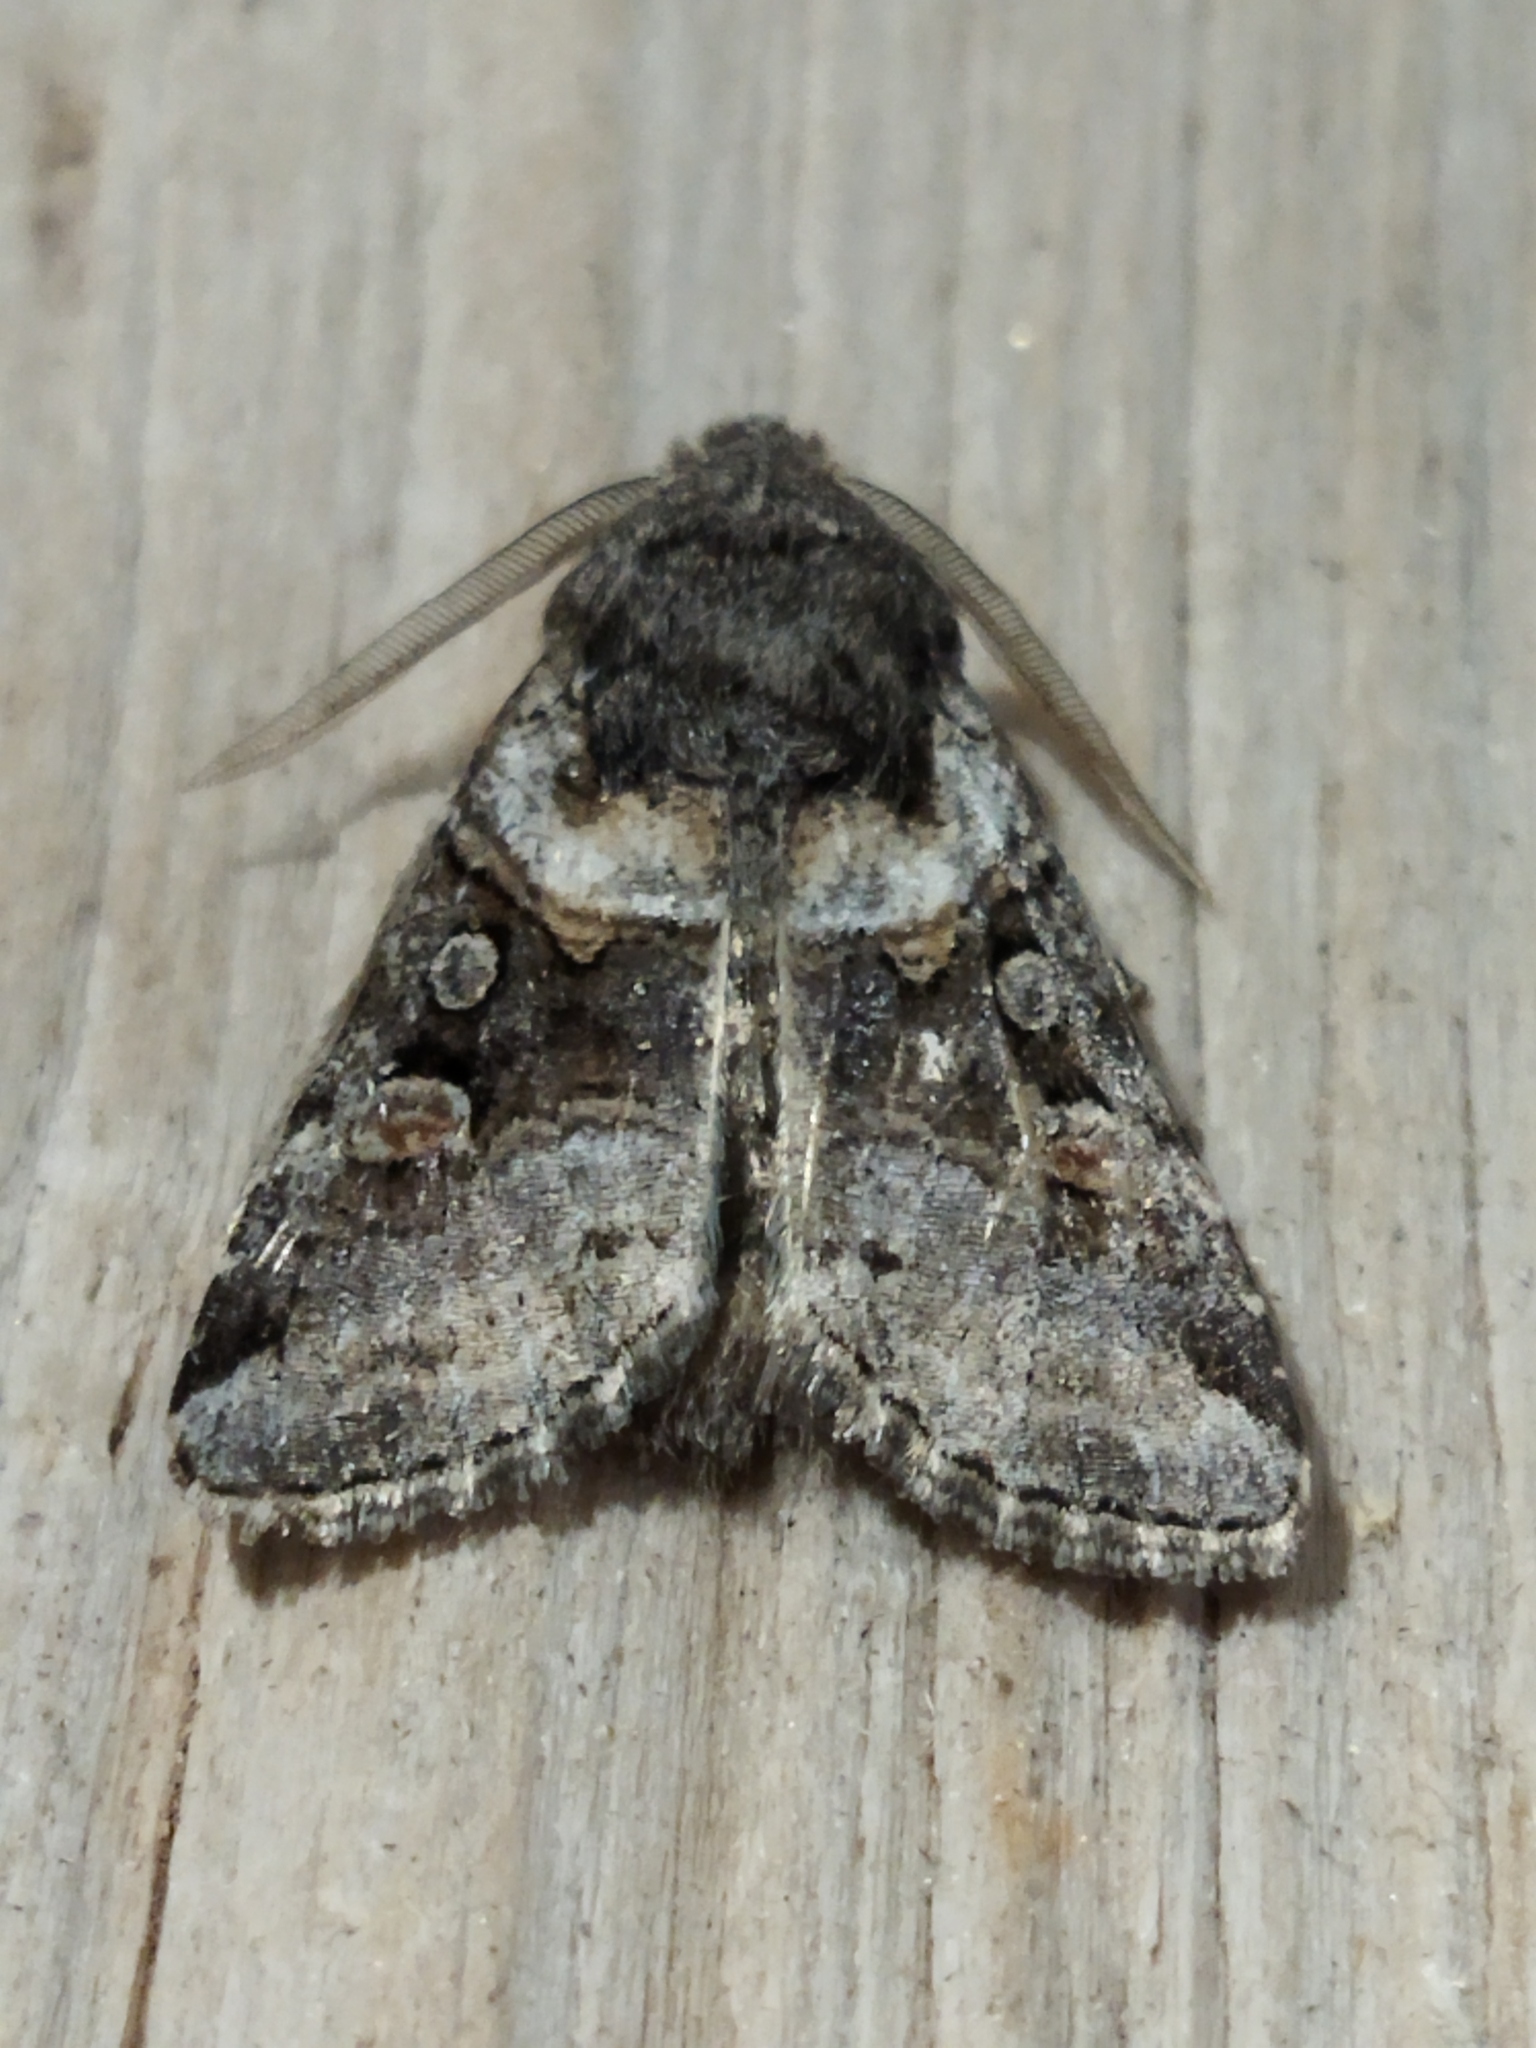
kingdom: Animalia
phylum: Arthropoda
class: Insecta
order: Lepidoptera
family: Noctuidae
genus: Cleoceris
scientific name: Cleoceris scoriacea
